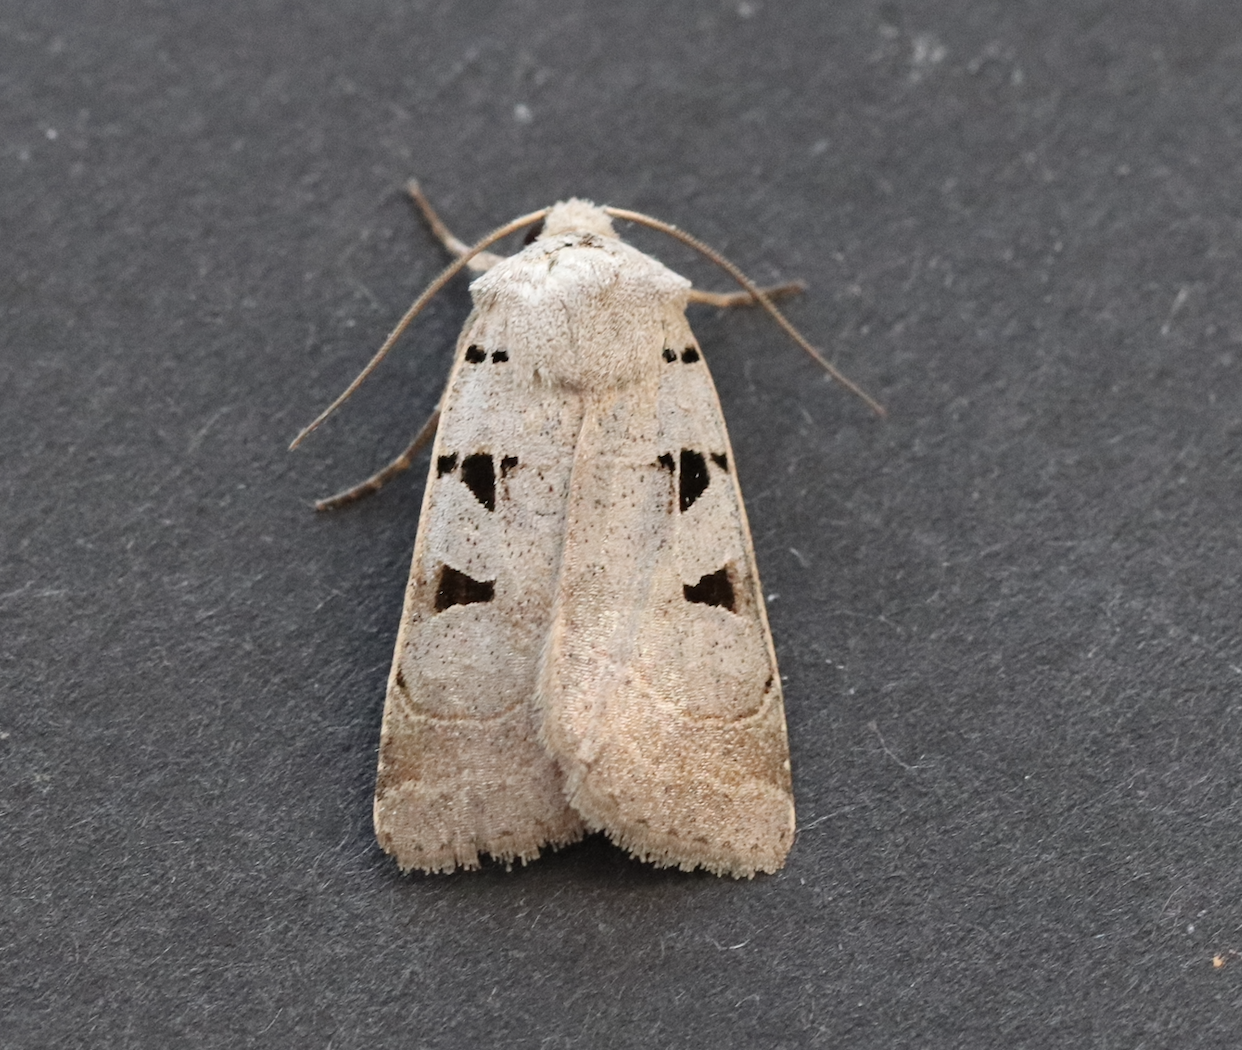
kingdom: Animalia
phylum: Arthropoda
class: Insecta
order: Lepidoptera
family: Noctuidae
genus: Eugnorisma
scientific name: Eugnorisma glareosa
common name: Autumnal rustic
